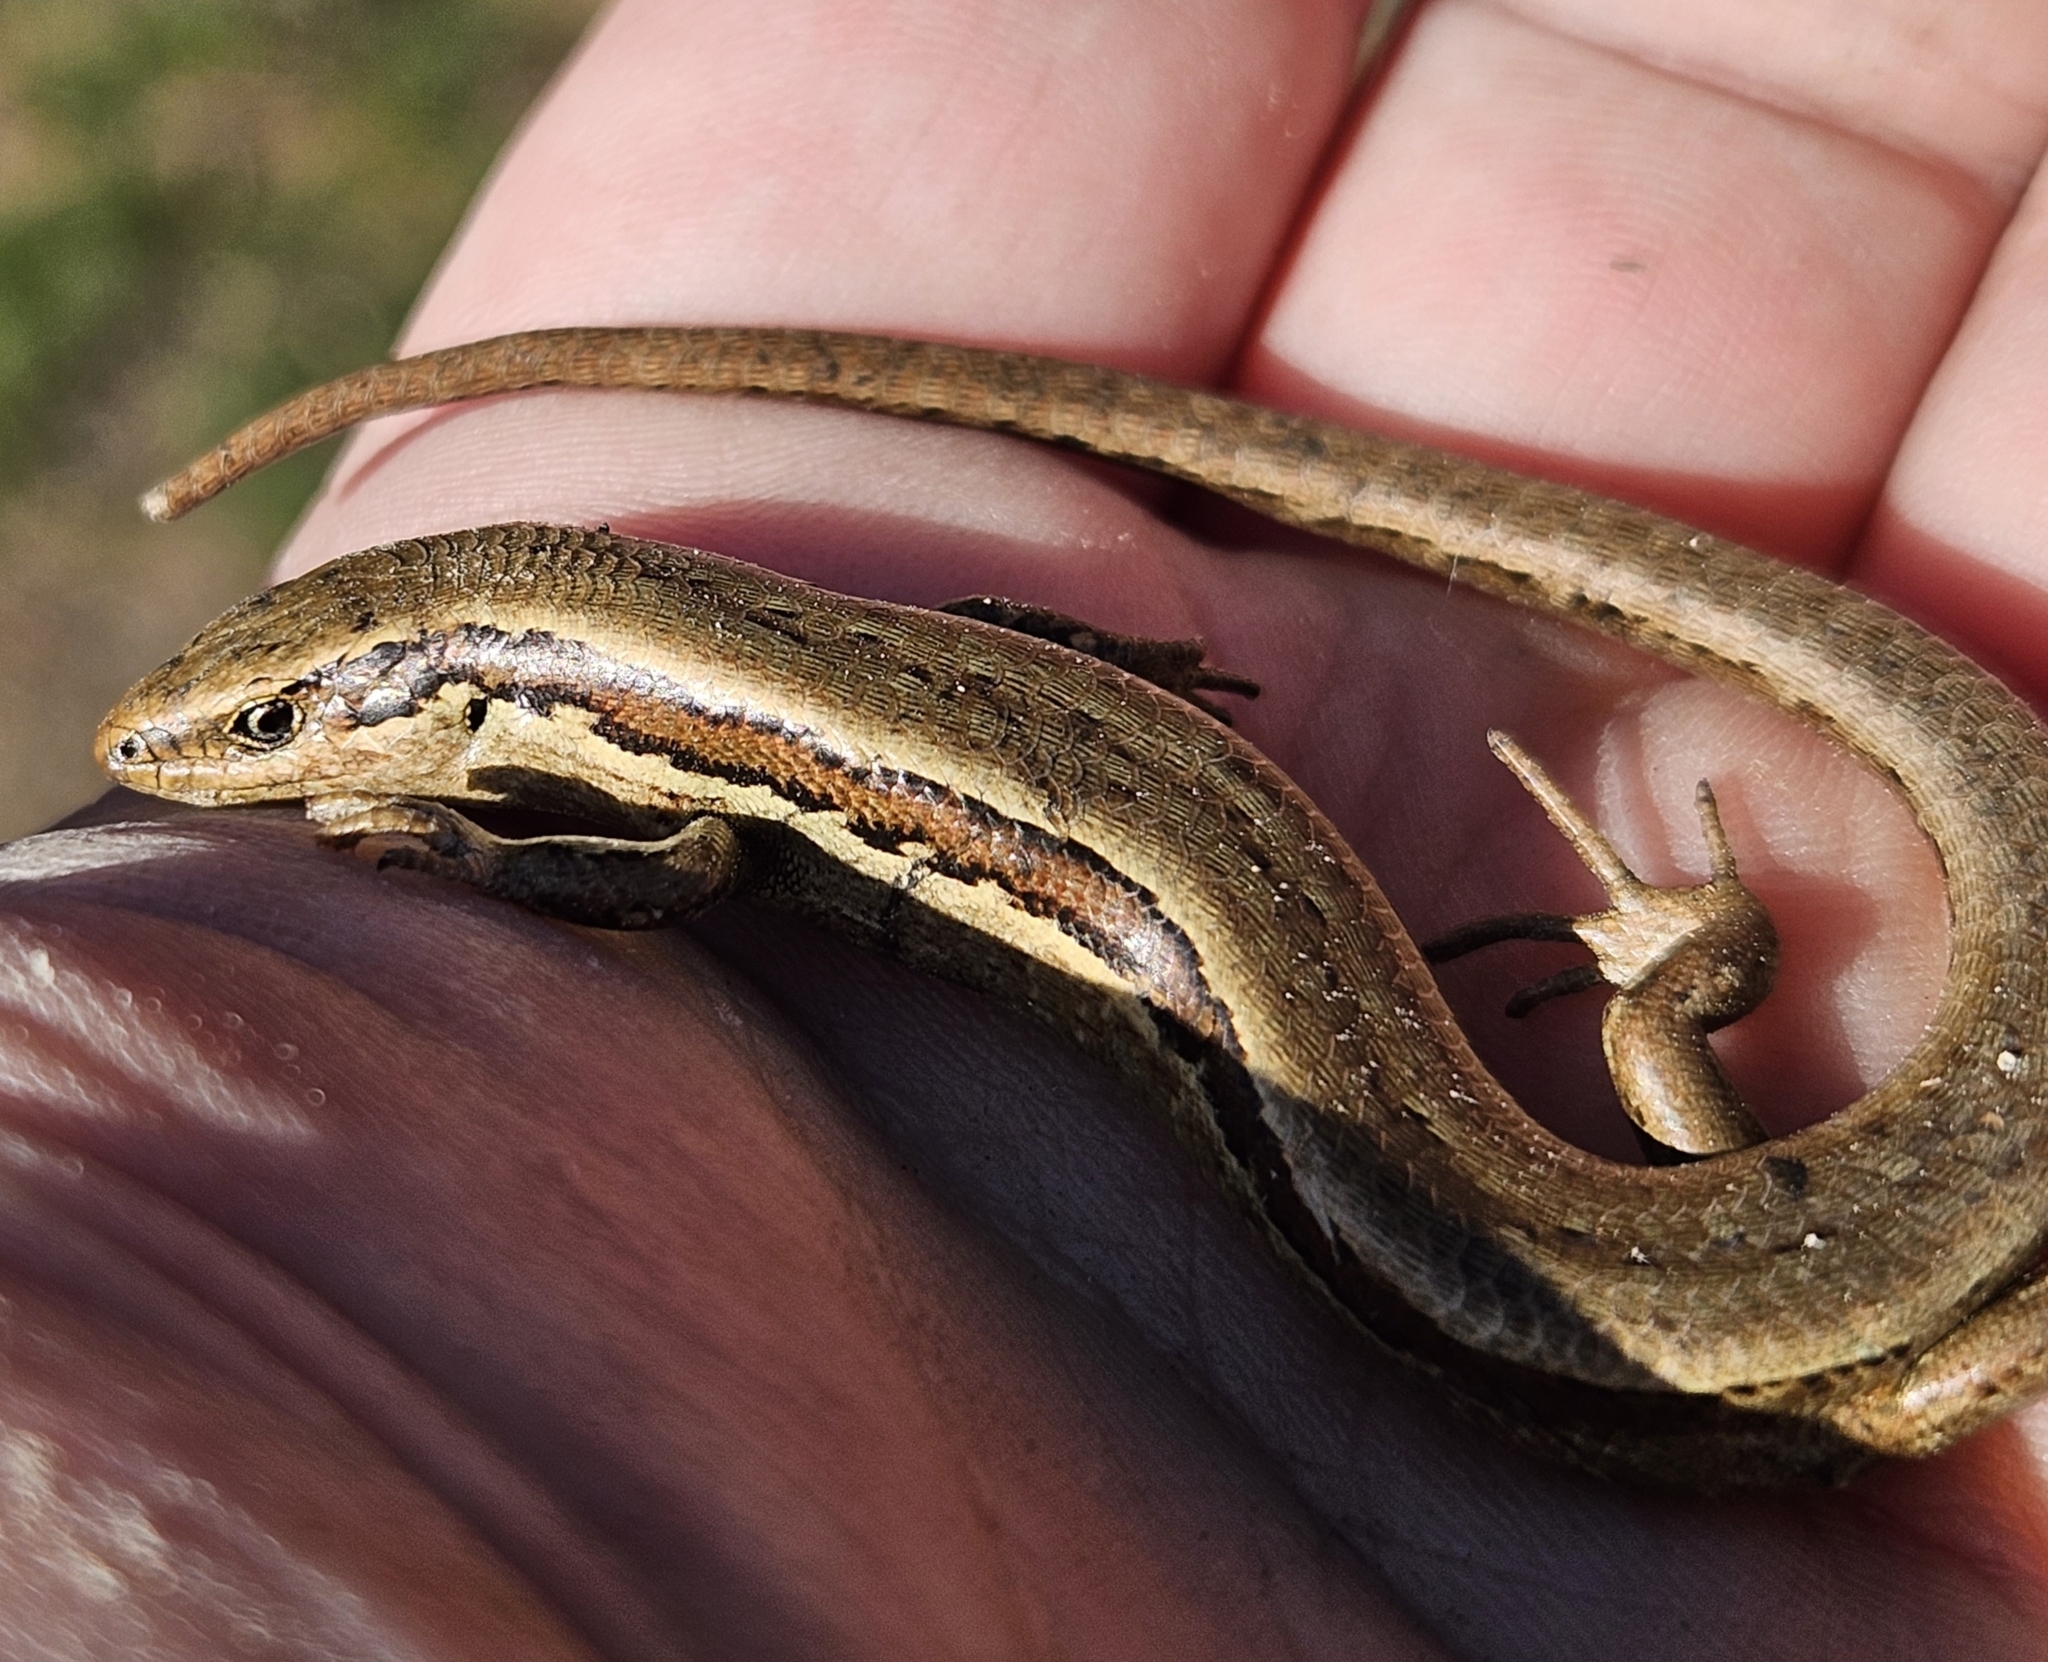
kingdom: Animalia
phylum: Chordata
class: Squamata
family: Scincidae
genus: Oligosoma
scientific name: Oligosoma polychroma
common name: Common new zealand skink
